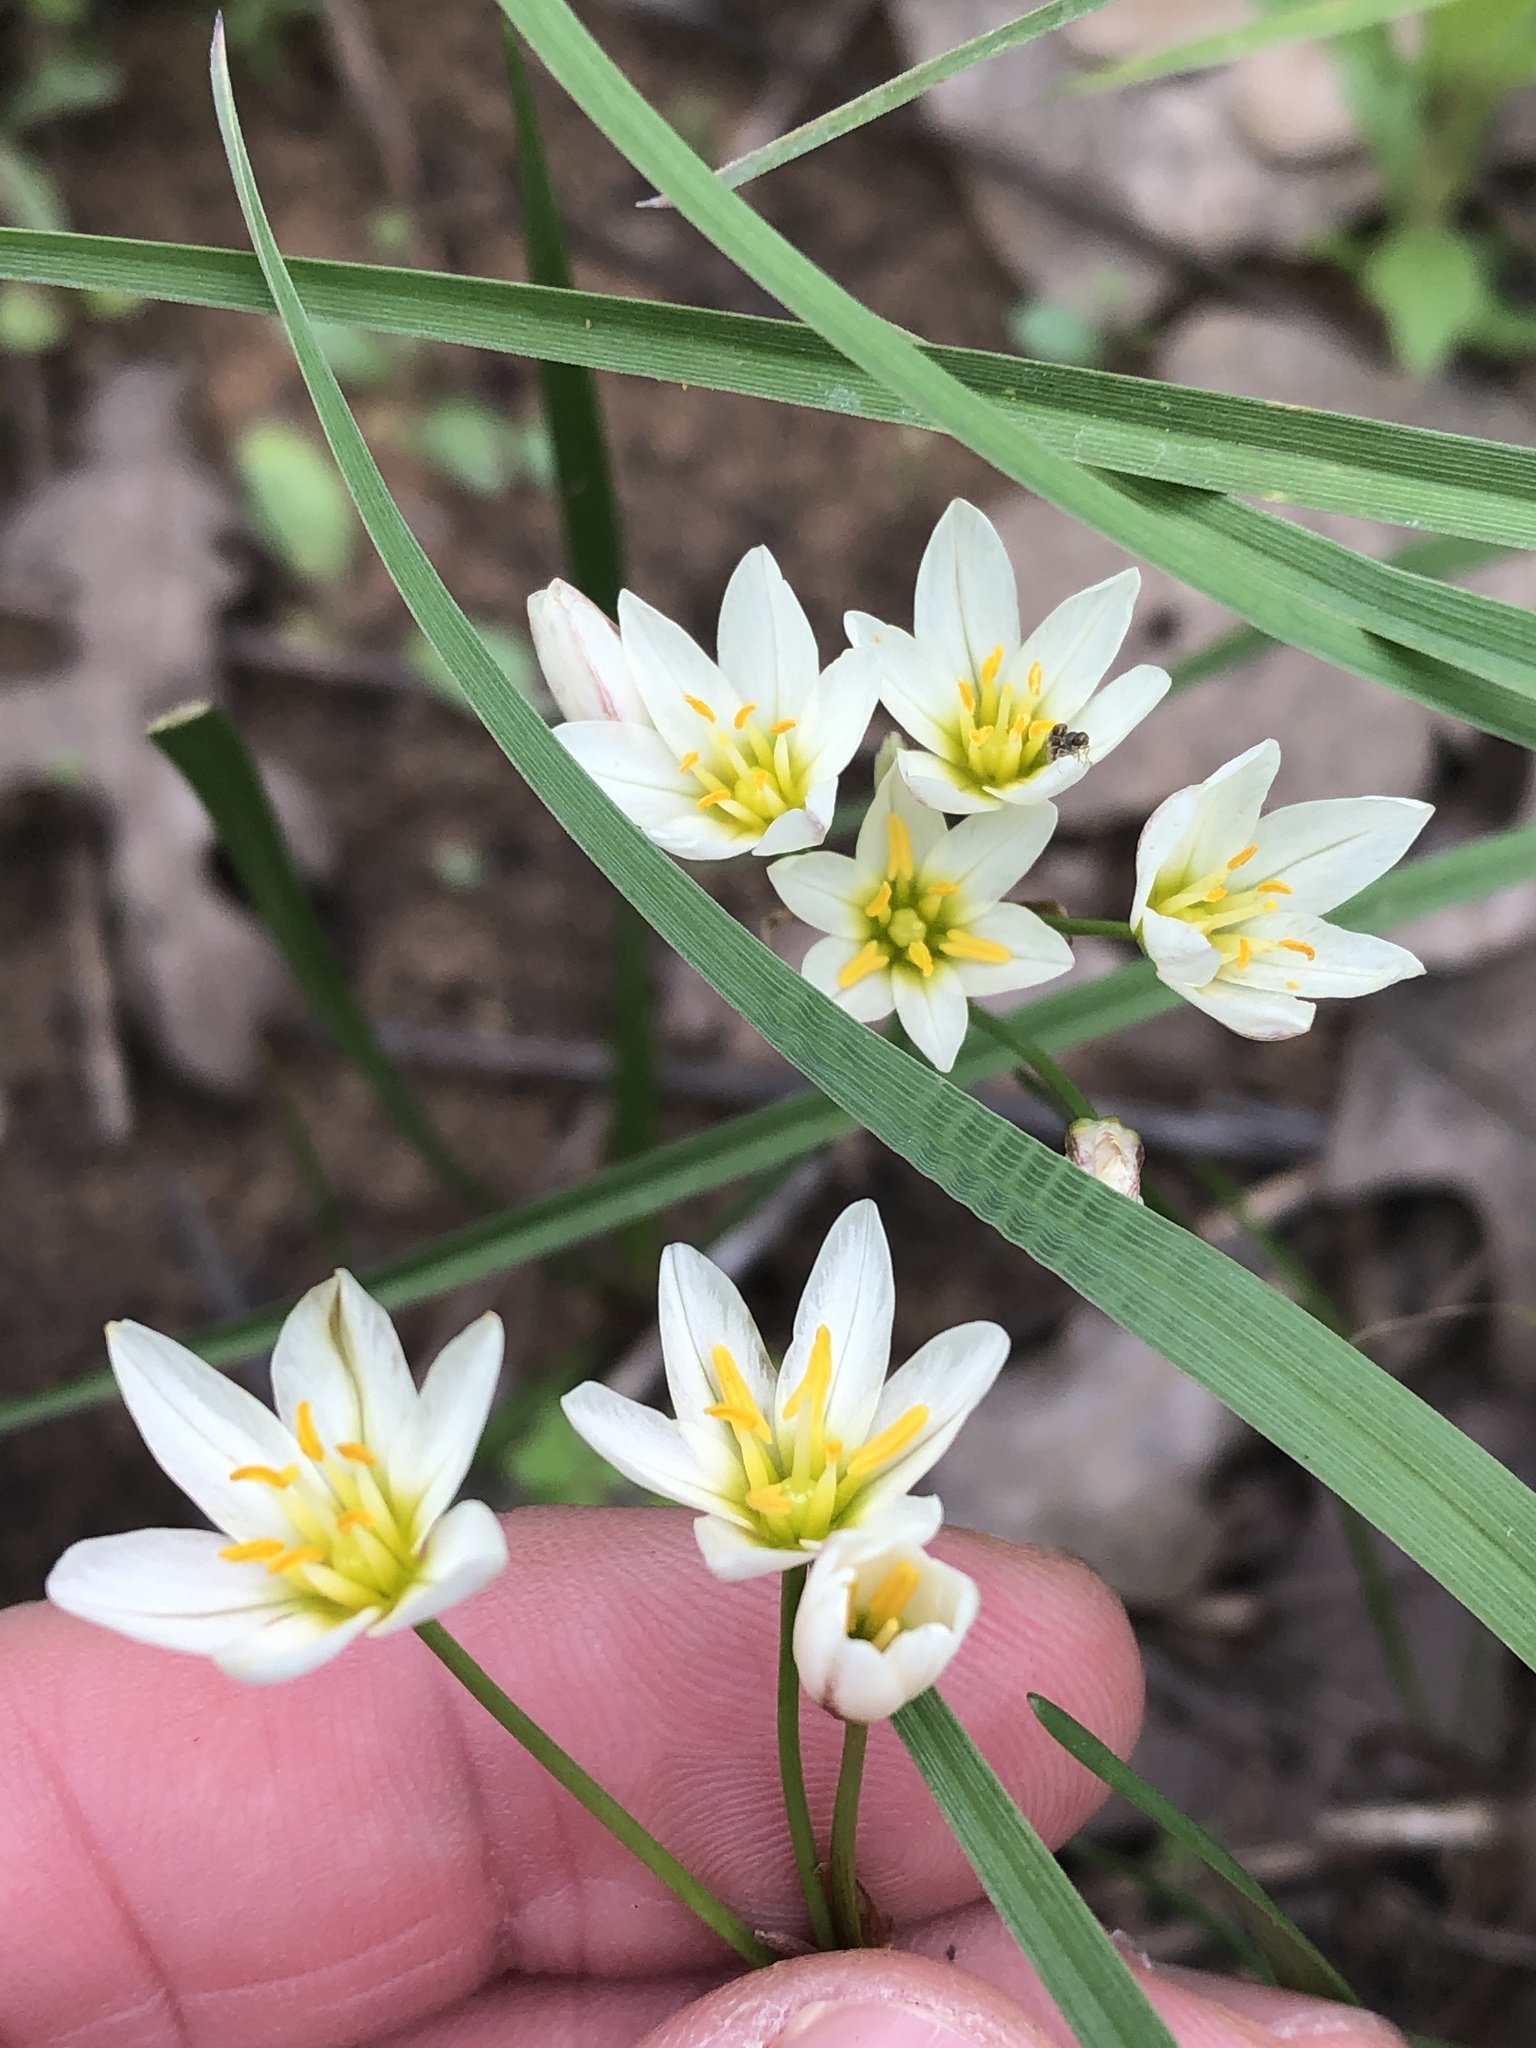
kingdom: Plantae
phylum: Tracheophyta
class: Liliopsida
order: Asparagales
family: Amaryllidaceae
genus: Nothoscordum
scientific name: Nothoscordum bivalve
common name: Crow-poison
